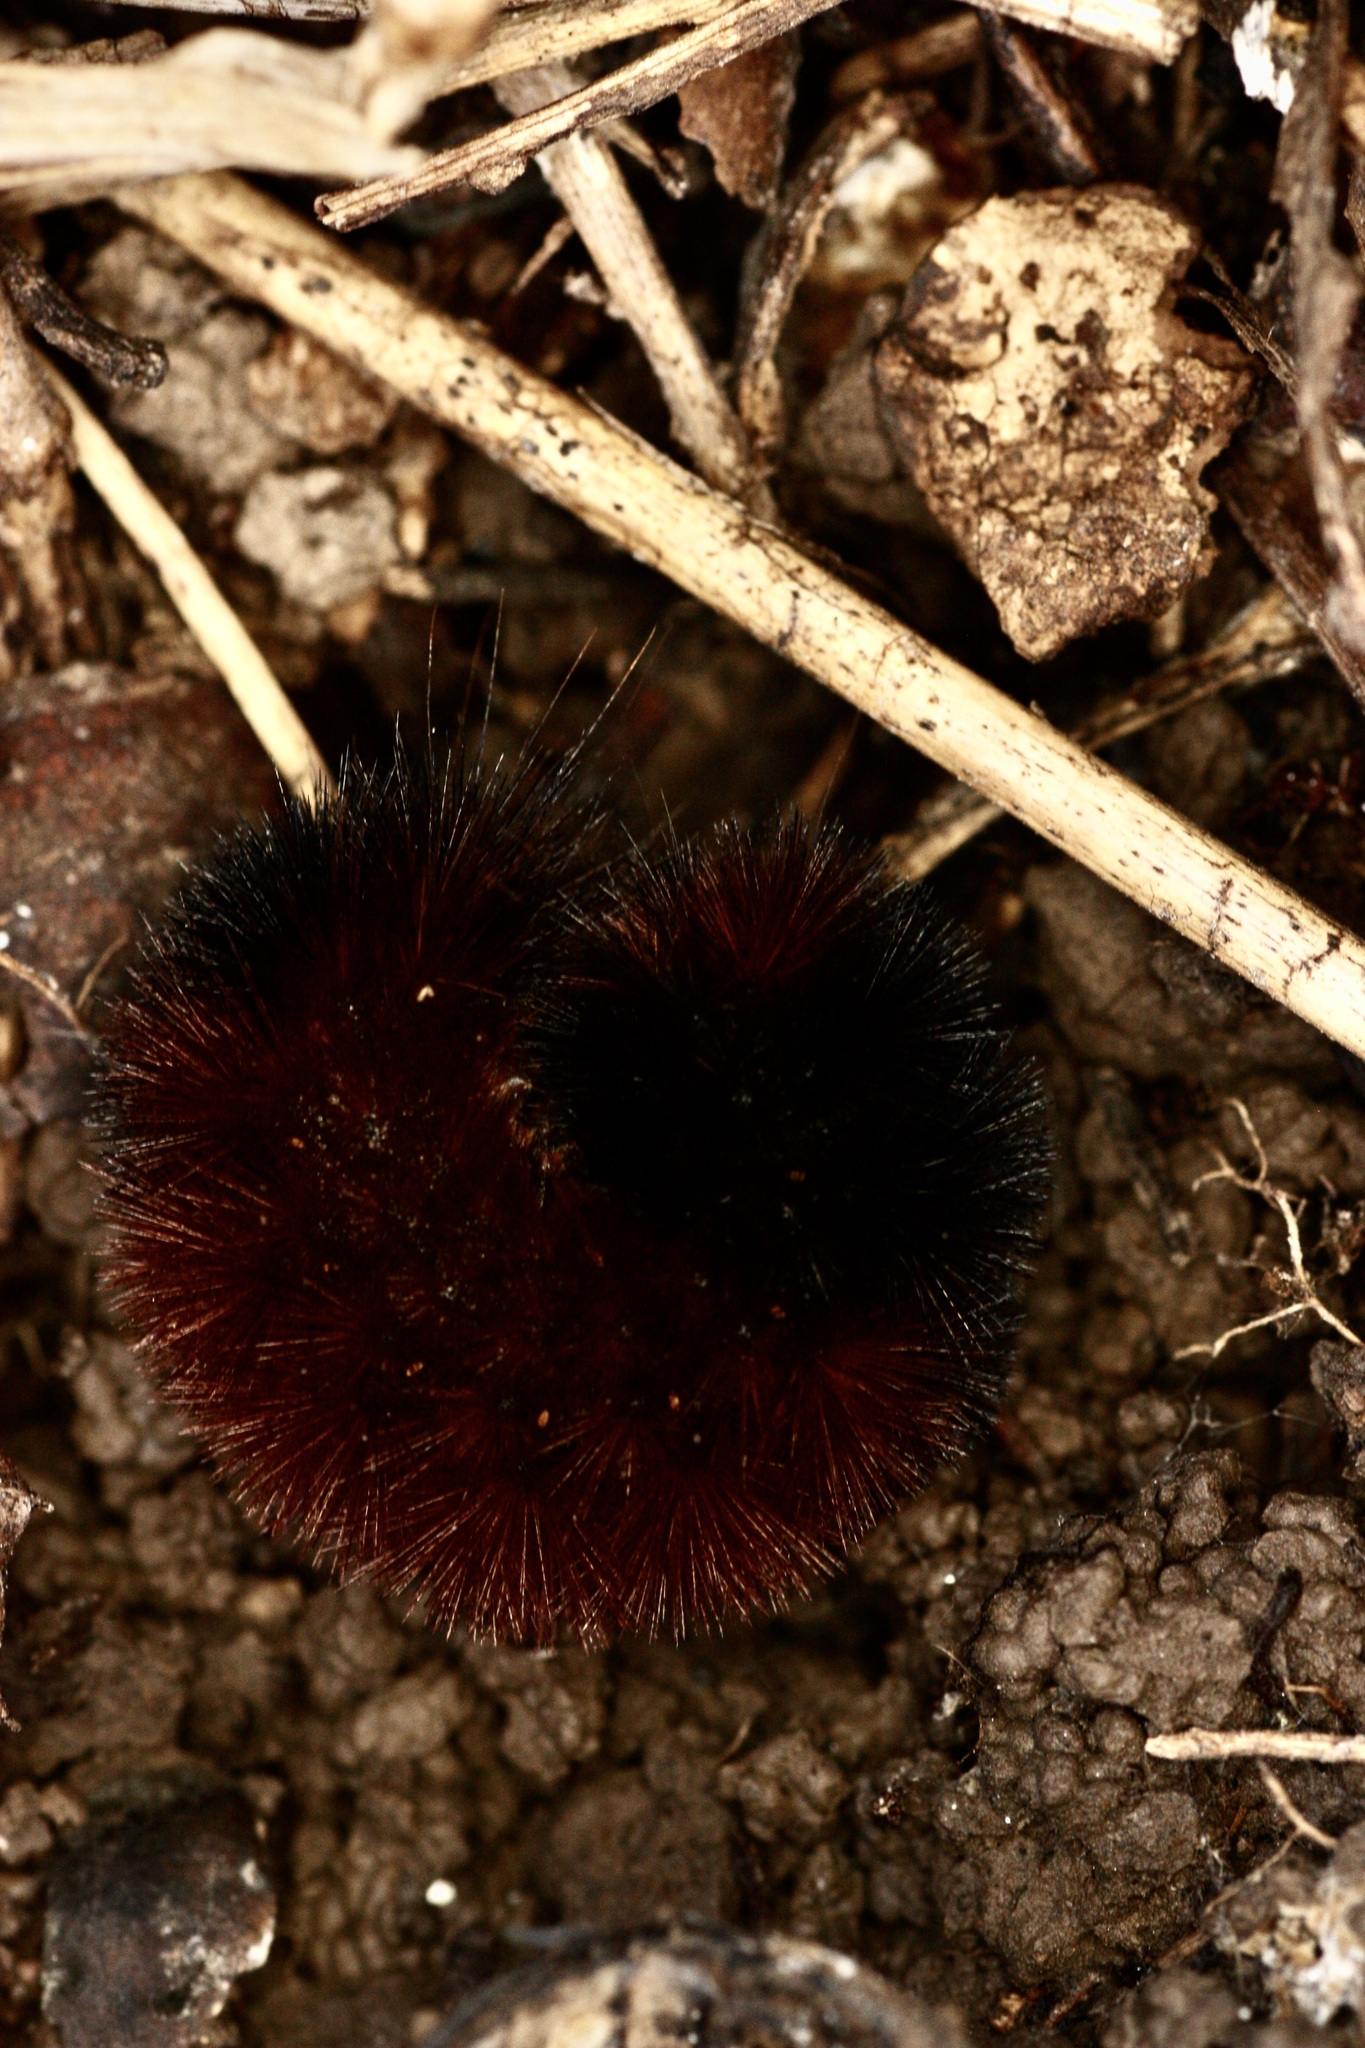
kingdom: Animalia
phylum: Arthropoda
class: Insecta
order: Lepidoptera
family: Erebidae
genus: Pyrrharctia
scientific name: Pyrrharctia isabella
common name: Isabella tiger moth
